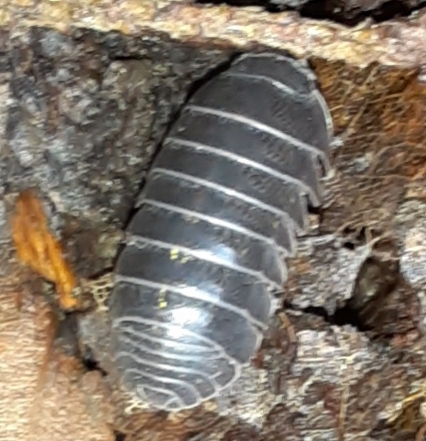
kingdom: Animalia
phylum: Arthropoda
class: Malacostraca
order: Isopoda
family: Oniscidae
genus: Oniscus
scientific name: Oniscus asellus
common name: Common shiny woodlouse
